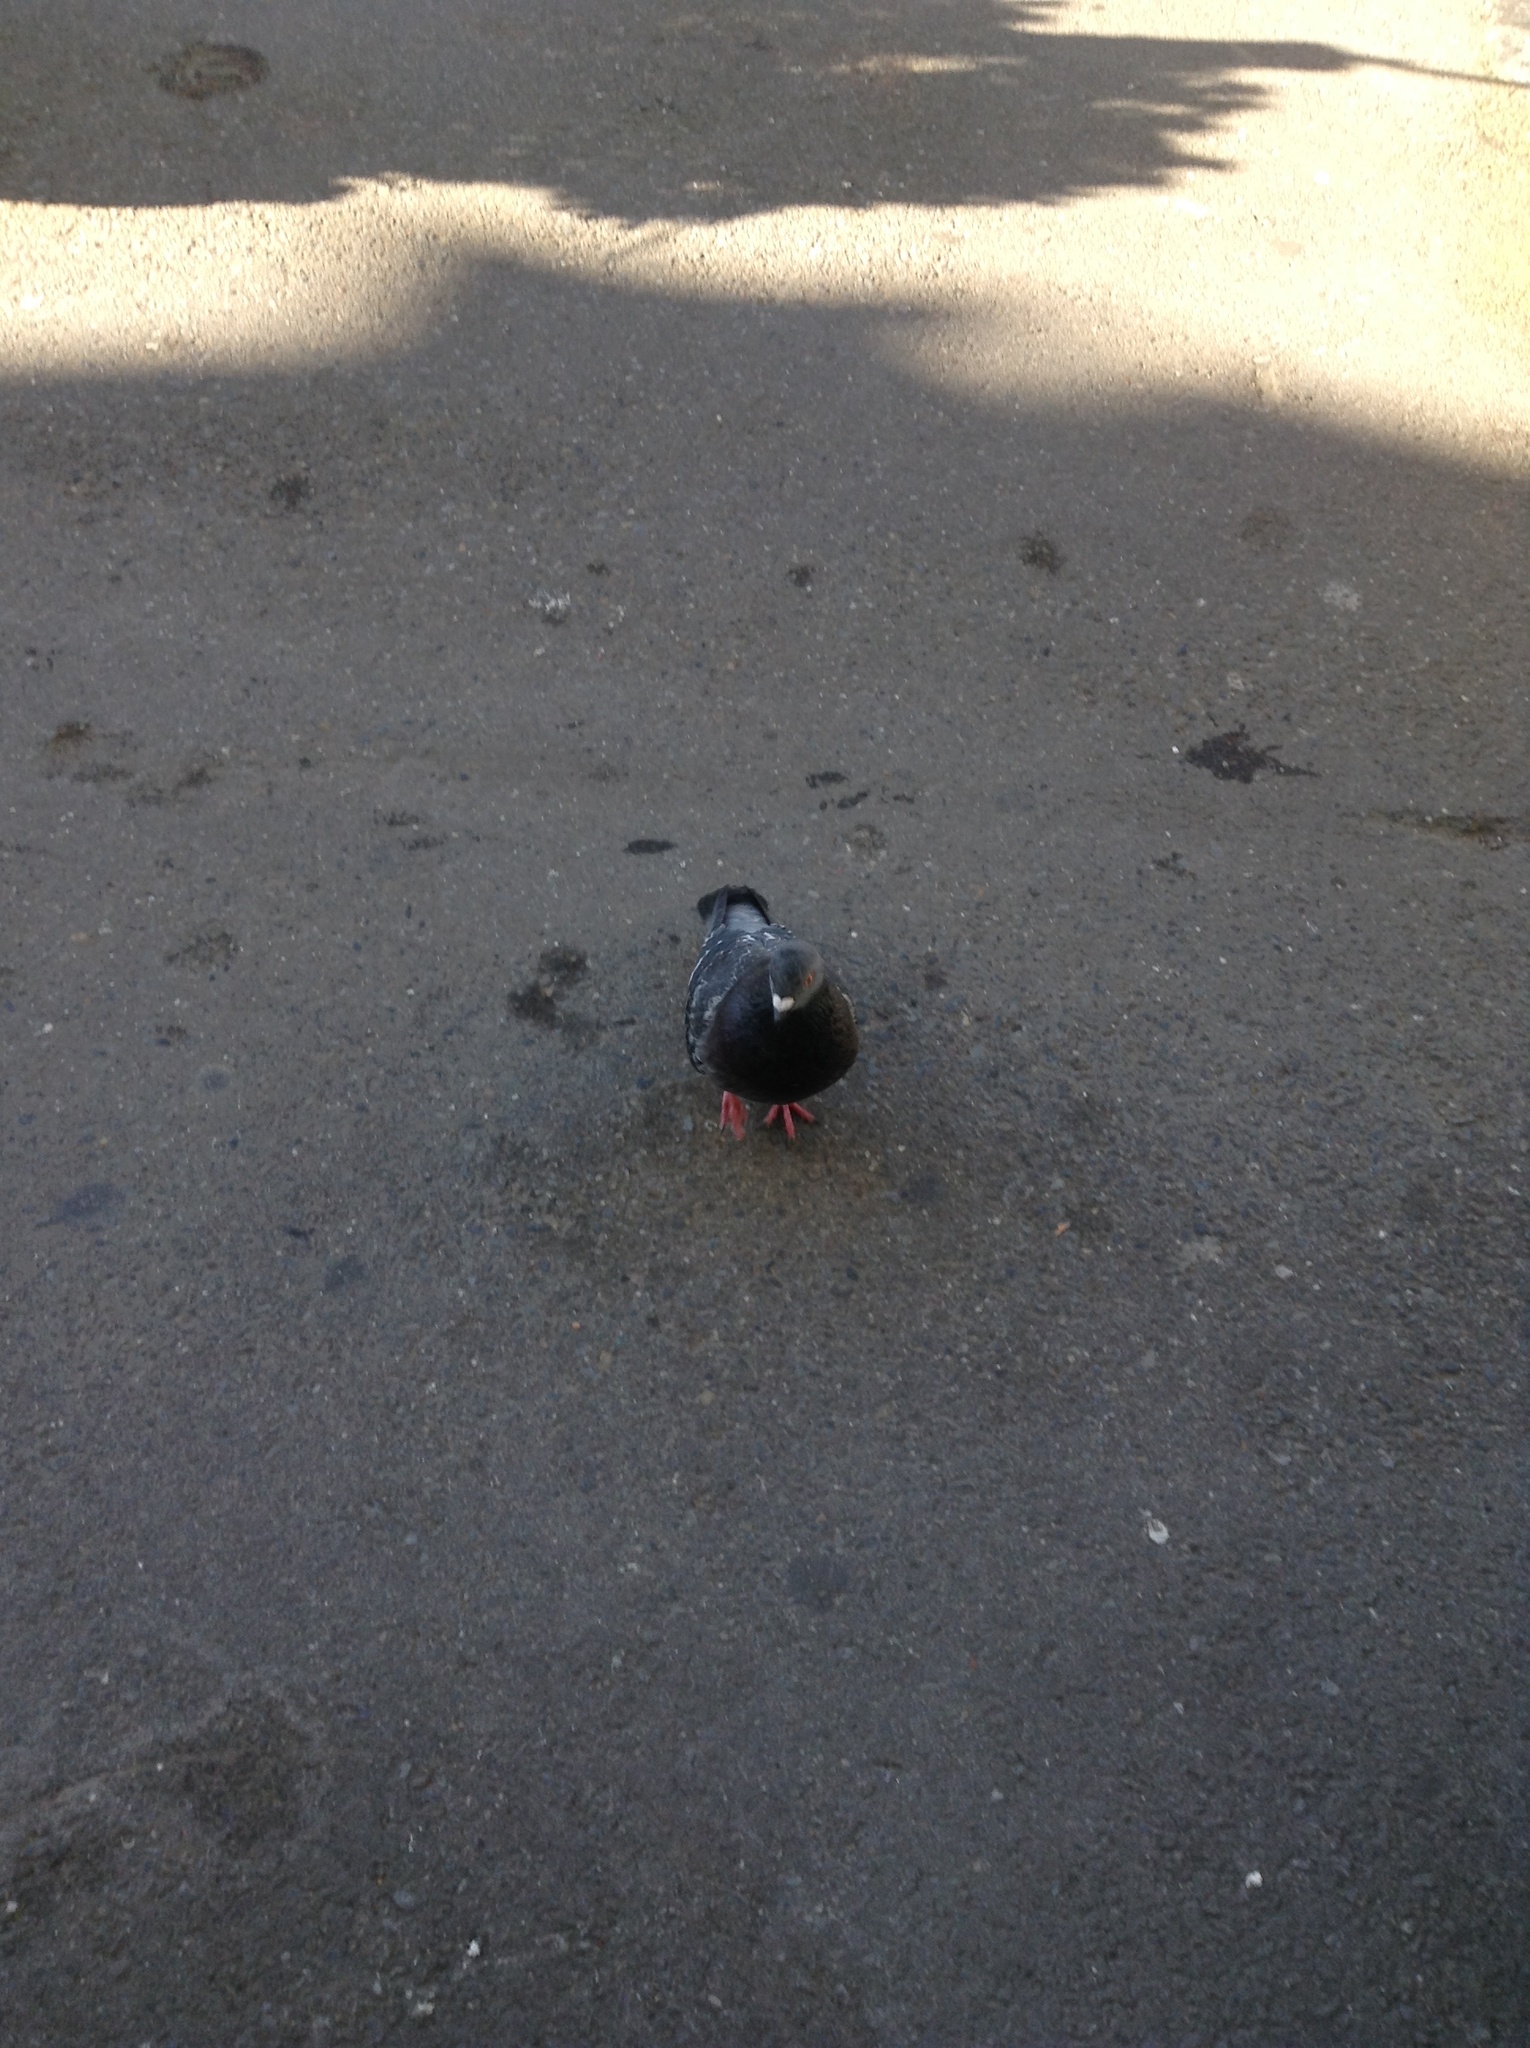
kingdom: Animalia
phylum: Chordata
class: Aves
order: Columbiformes
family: Columbidae
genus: Columba
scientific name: Columba livia
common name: Rock pigeon
